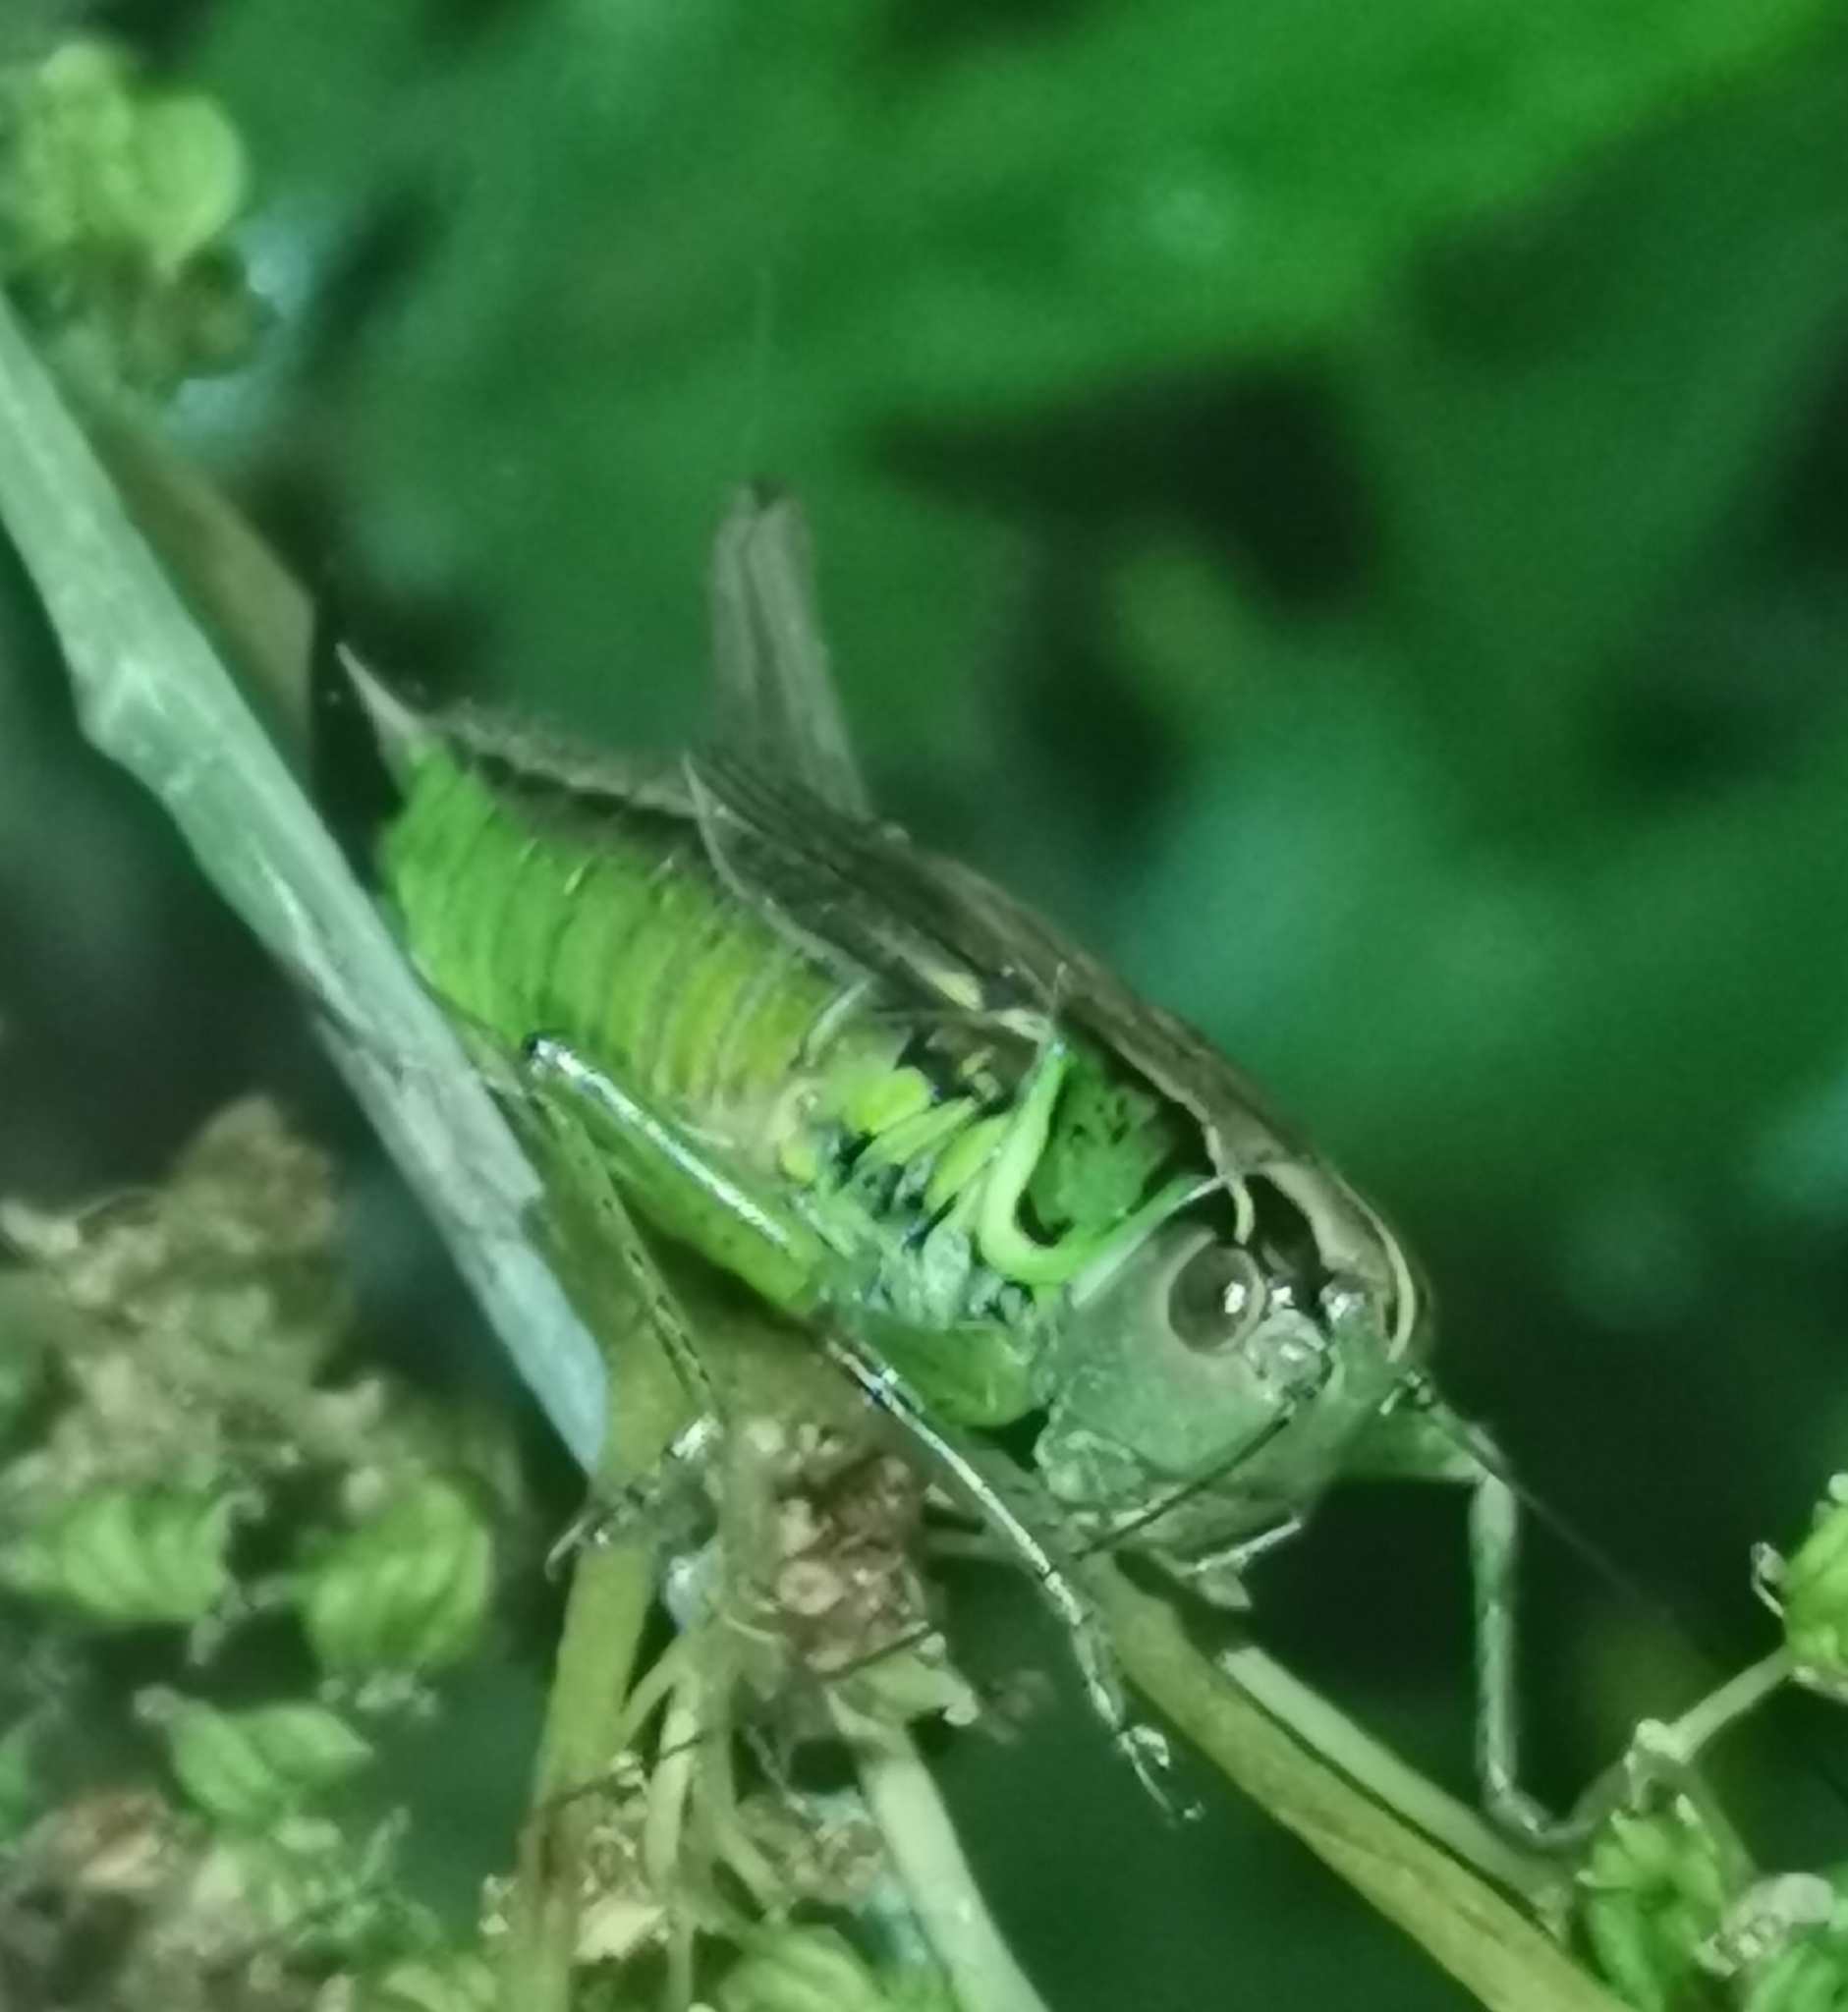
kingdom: Animalia
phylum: Arthropoda
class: Insecta
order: Orthoptera
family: Tettigoniidae
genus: Roeseliana
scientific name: Roeseliana roeselii
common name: Roesel's bush cricket
